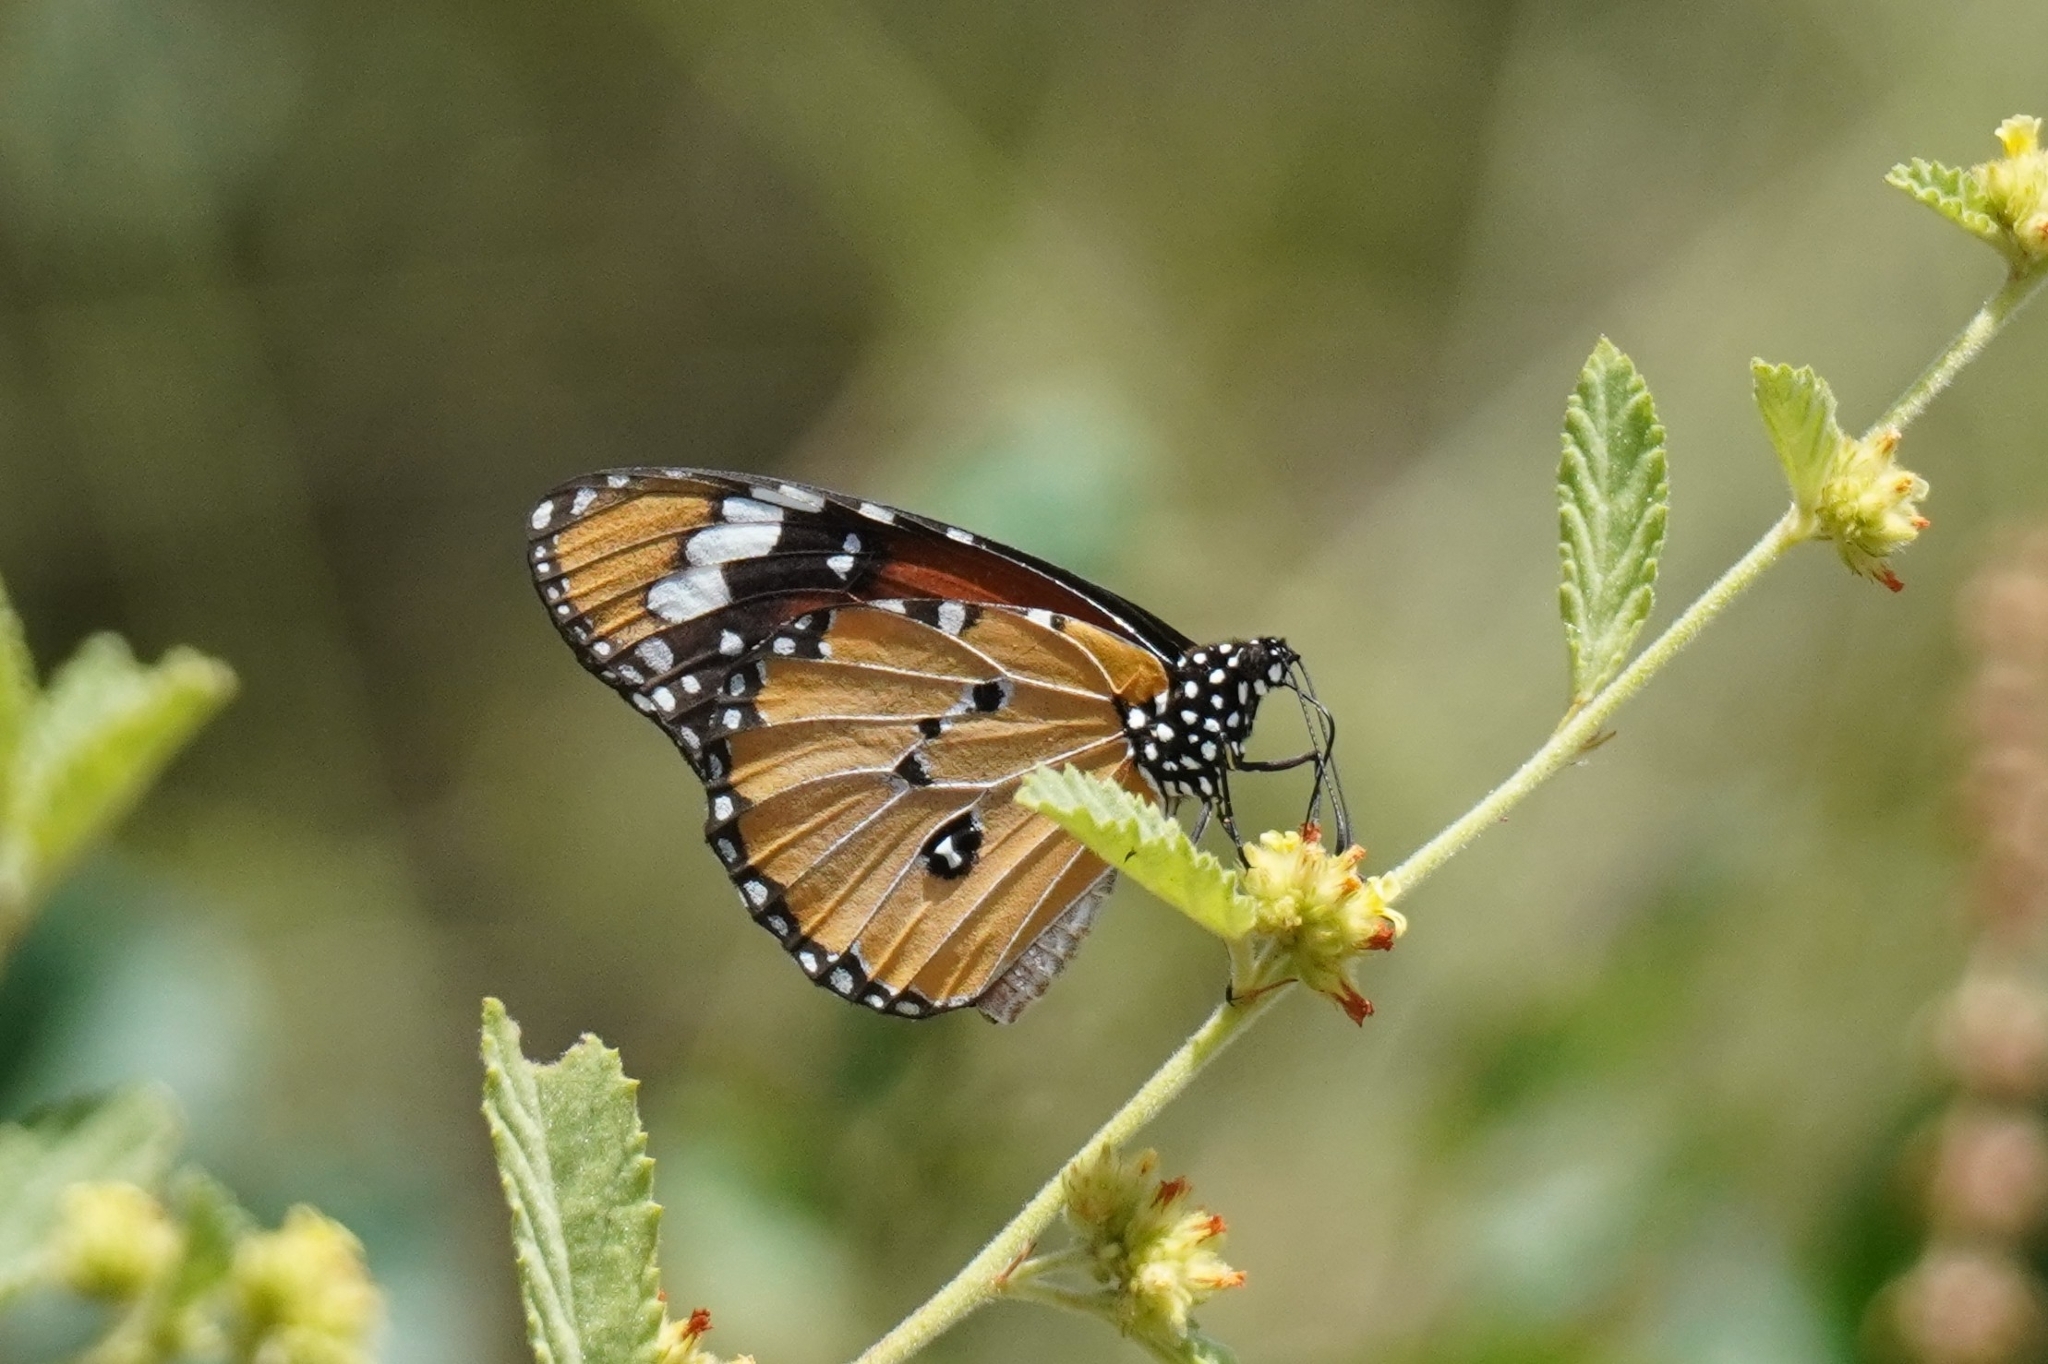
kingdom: Animalia
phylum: Arthropoda
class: Insecta
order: Lepidoptera
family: Nymphalidae
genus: Danaus
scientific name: Danaus chrysippus
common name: Plain tiger
